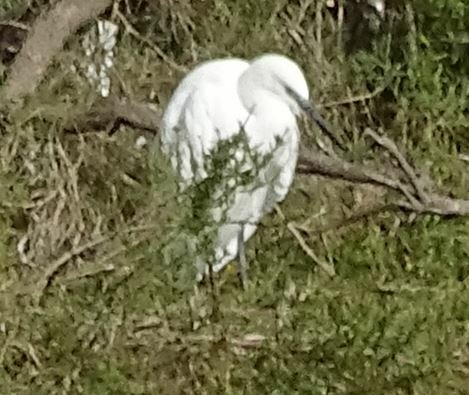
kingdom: Animalia
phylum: Chordata
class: Aves
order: Pelecaniformes
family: Ardeidae
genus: Egretta
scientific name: Egretta garzetta
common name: Little egret
